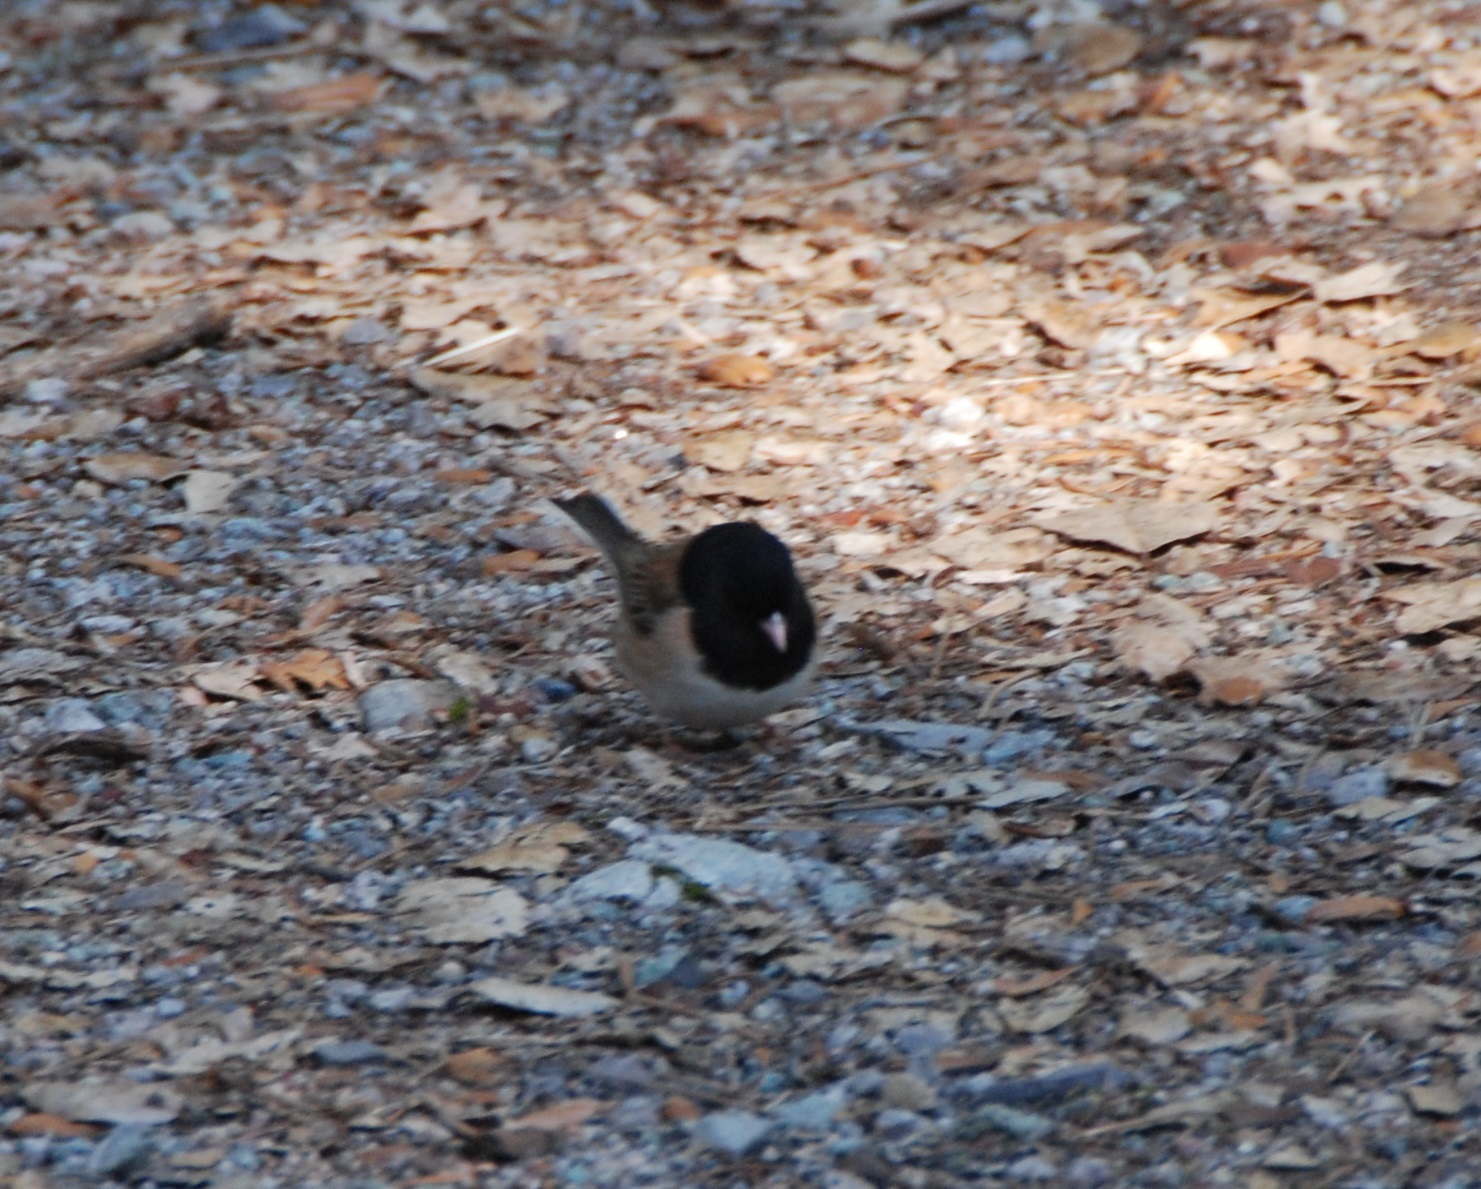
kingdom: Animalia
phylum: Chordata
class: Aves
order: Passeriformes
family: Passerellidae
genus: Junco
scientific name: Junco hyemalis
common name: Dark-eyed junco
